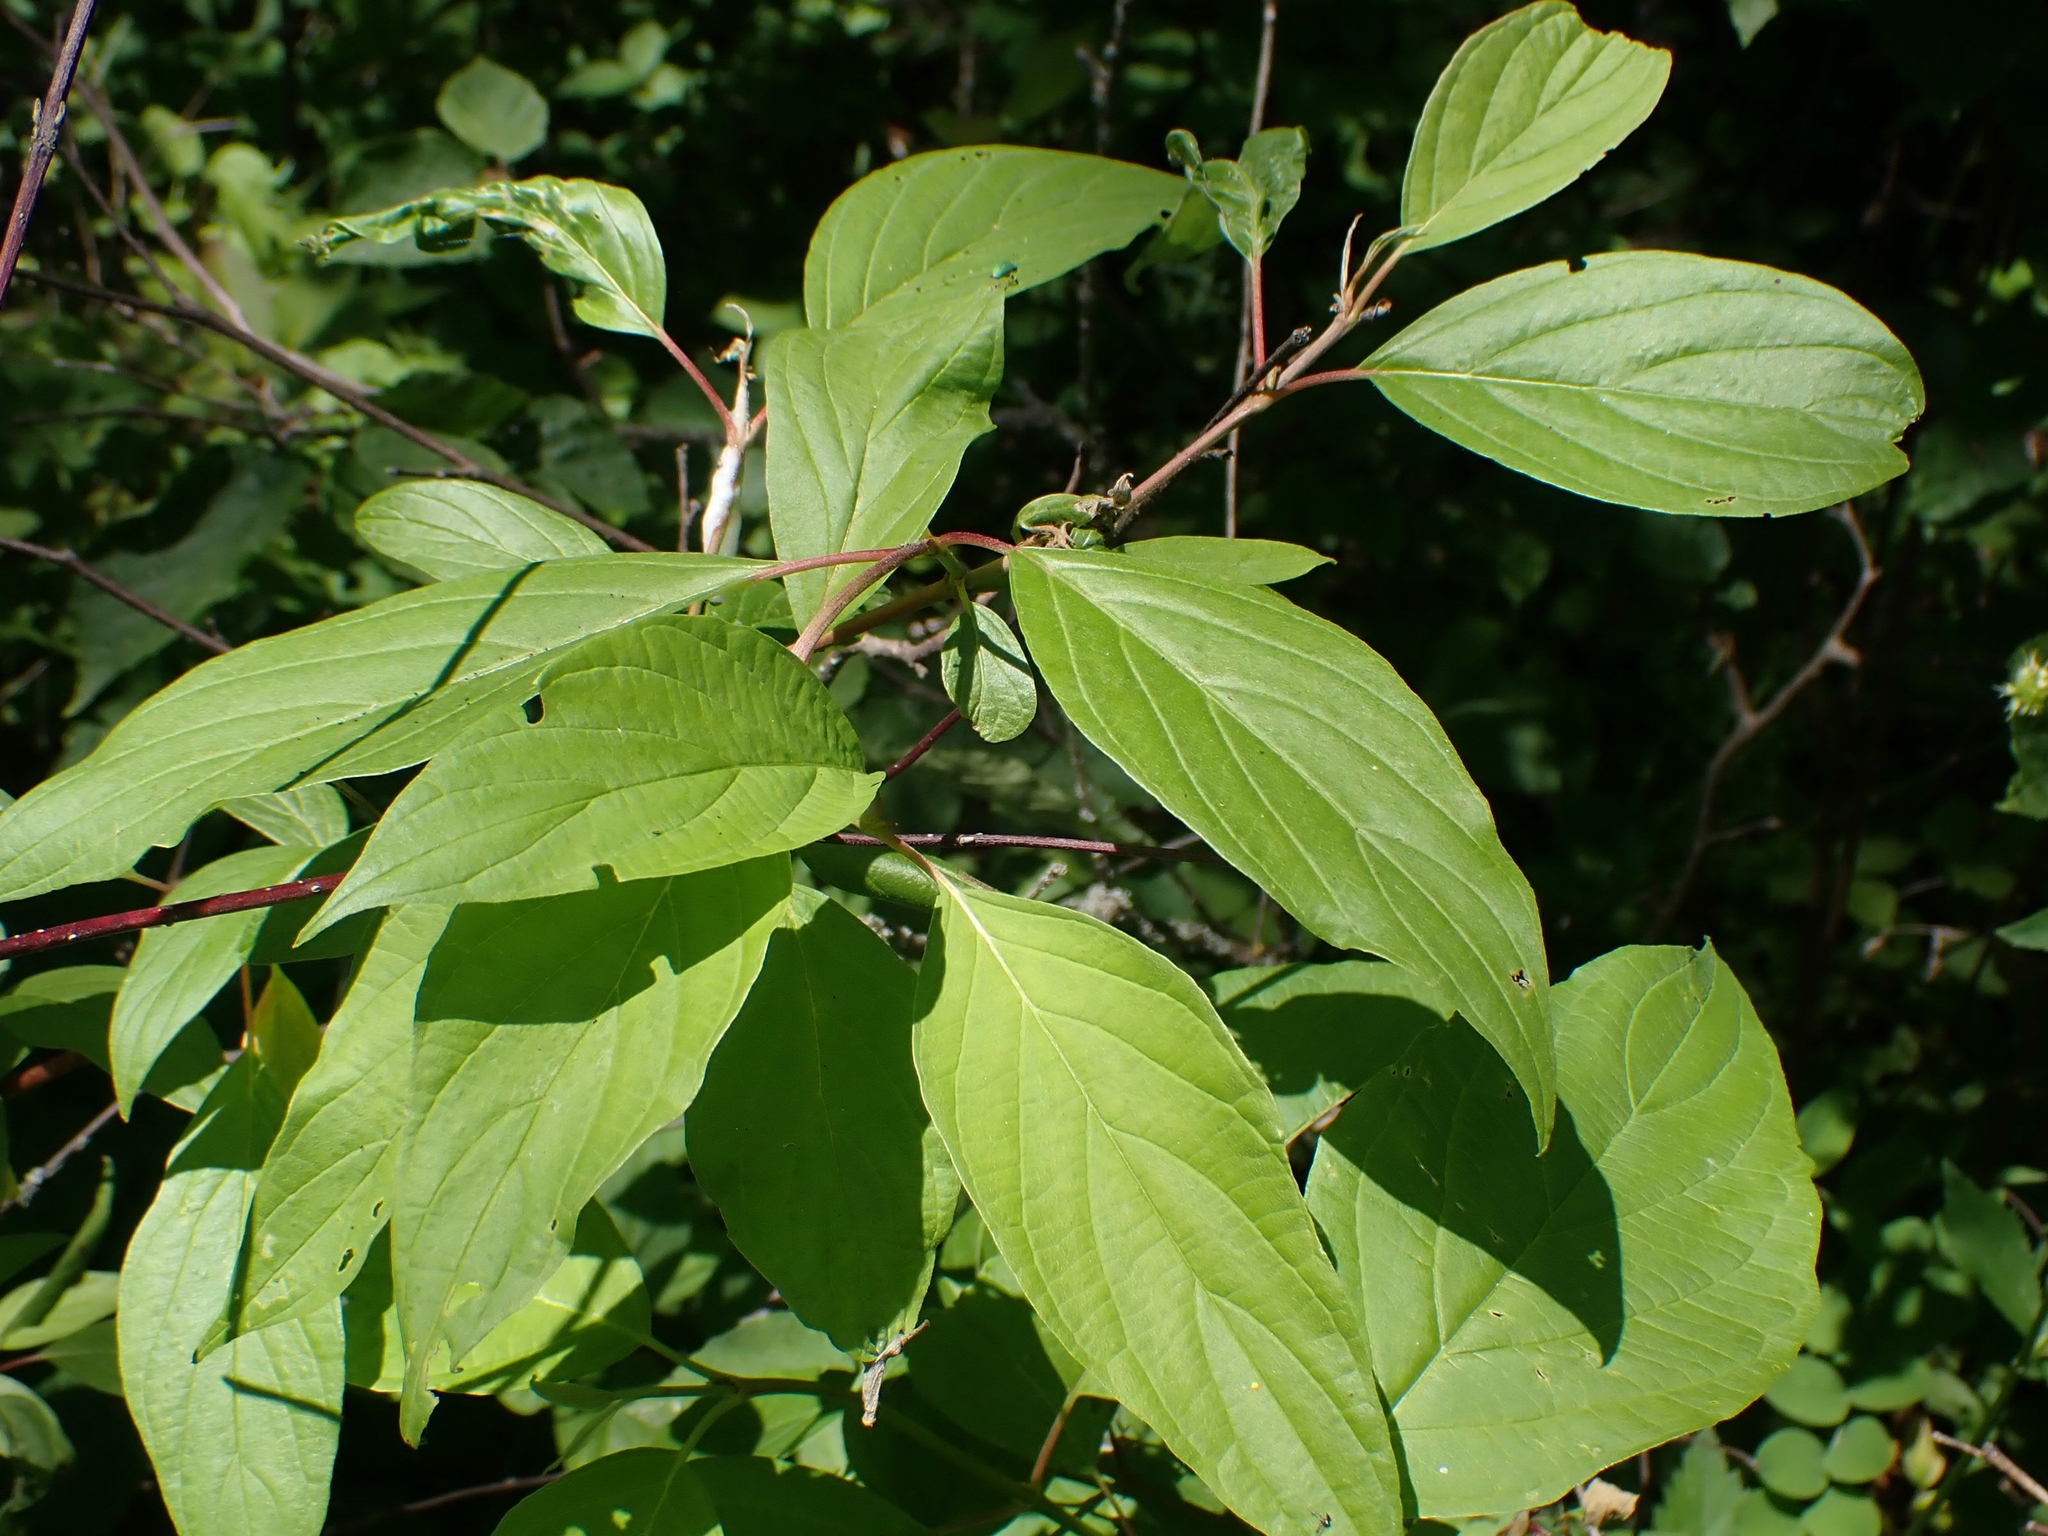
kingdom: Plantae
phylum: Tracheophyta
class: Magnoliopsida
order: Cornales
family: Cornaceae
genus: Cornus
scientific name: Cornus sericea
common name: Red-osier dogwood
